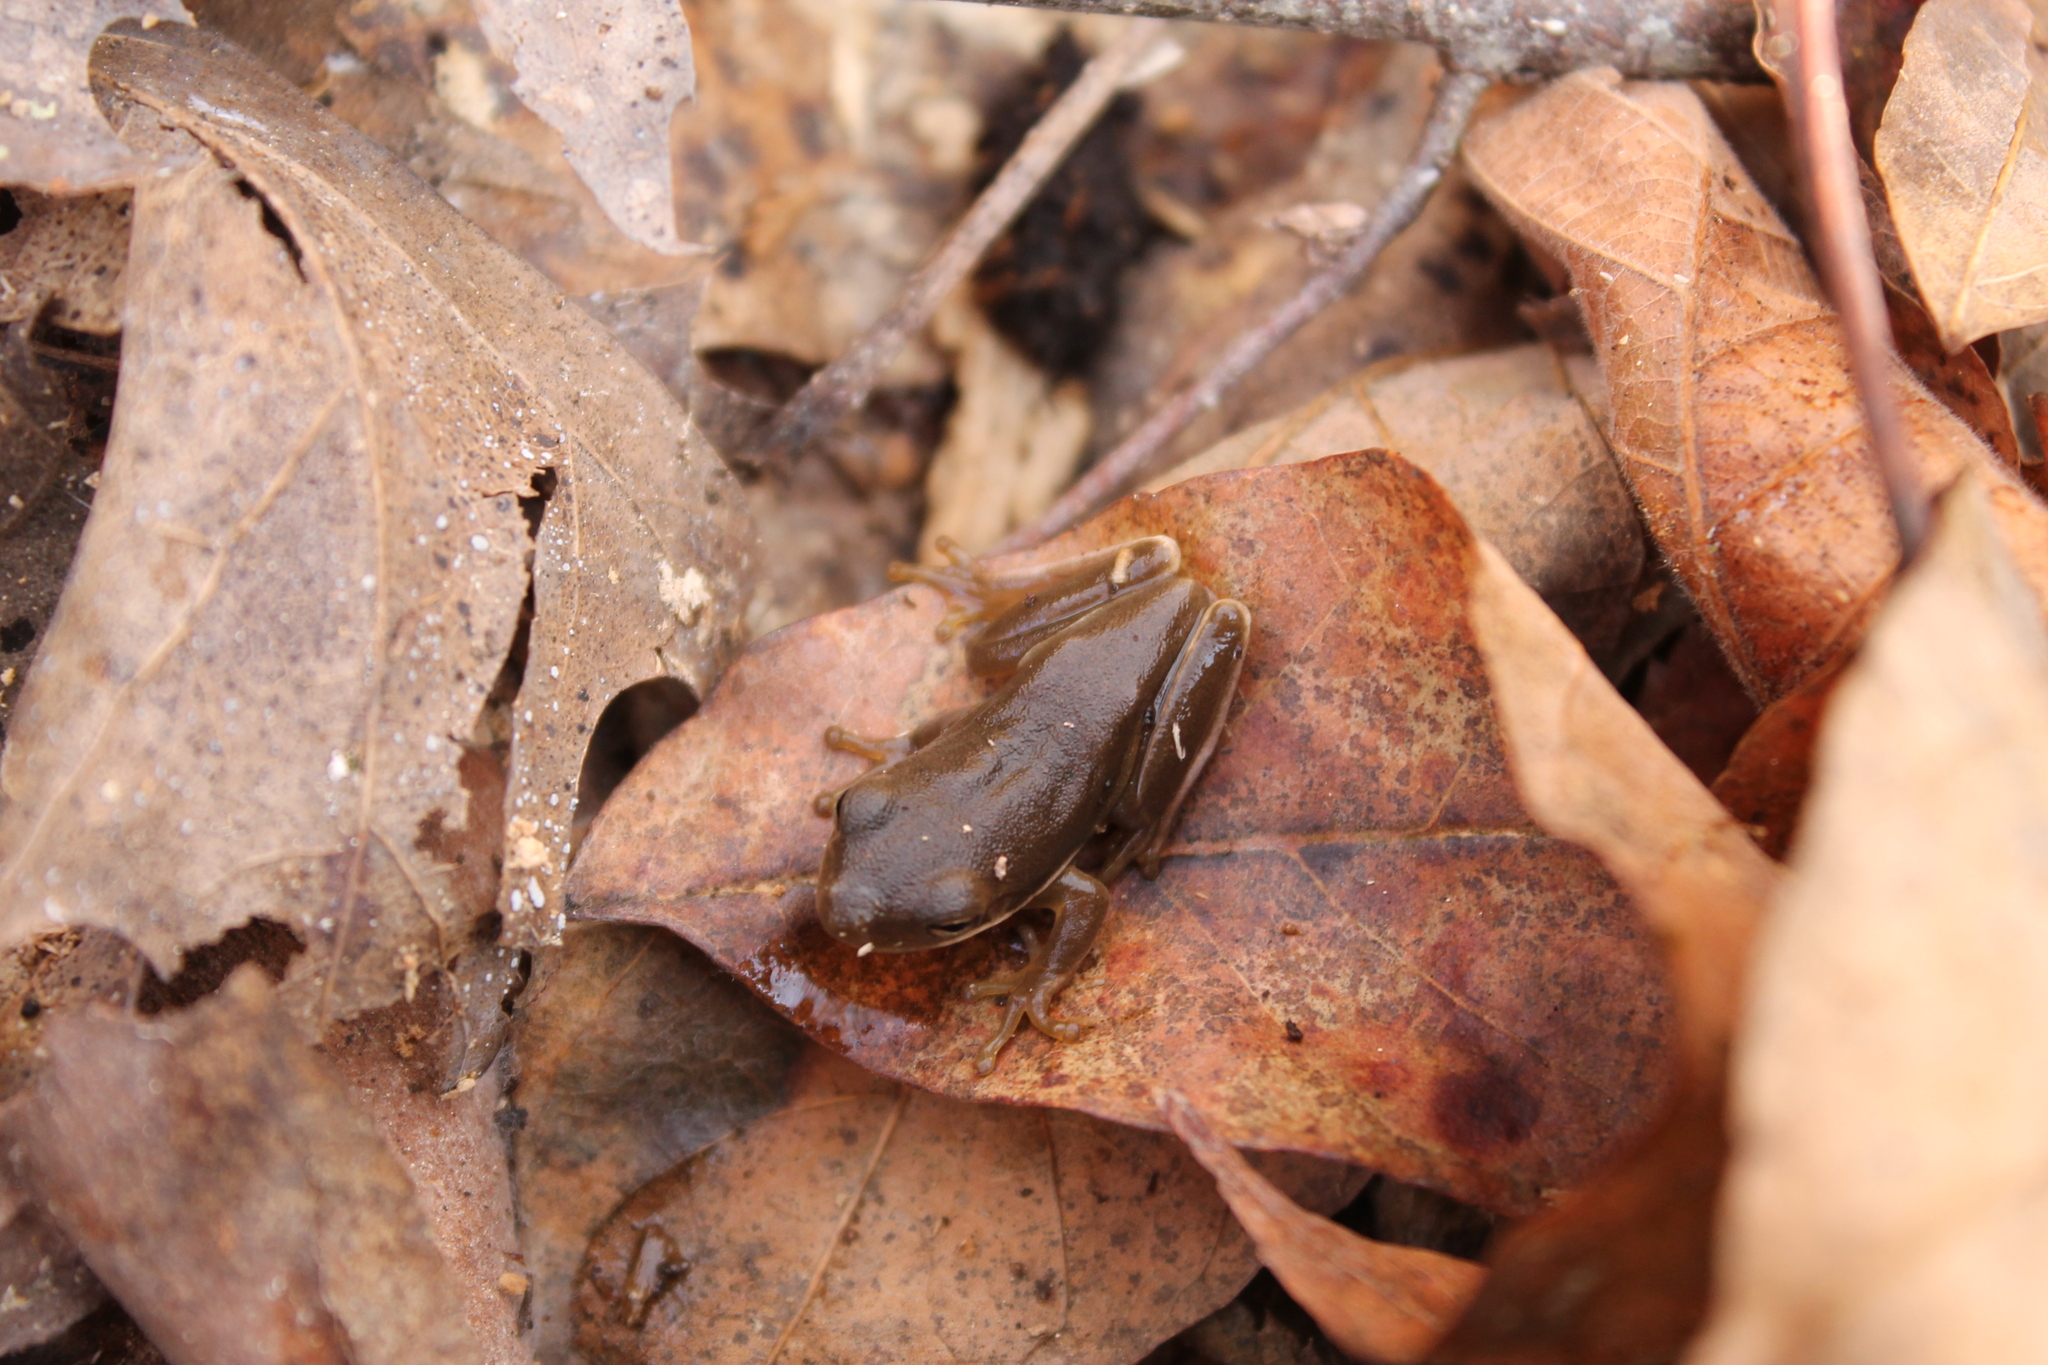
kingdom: Animalia
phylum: Chordata
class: Amphibia
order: Anura
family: Hylidae
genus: Dryophytes
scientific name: Dryophytes cinereus
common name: Green treefrog
